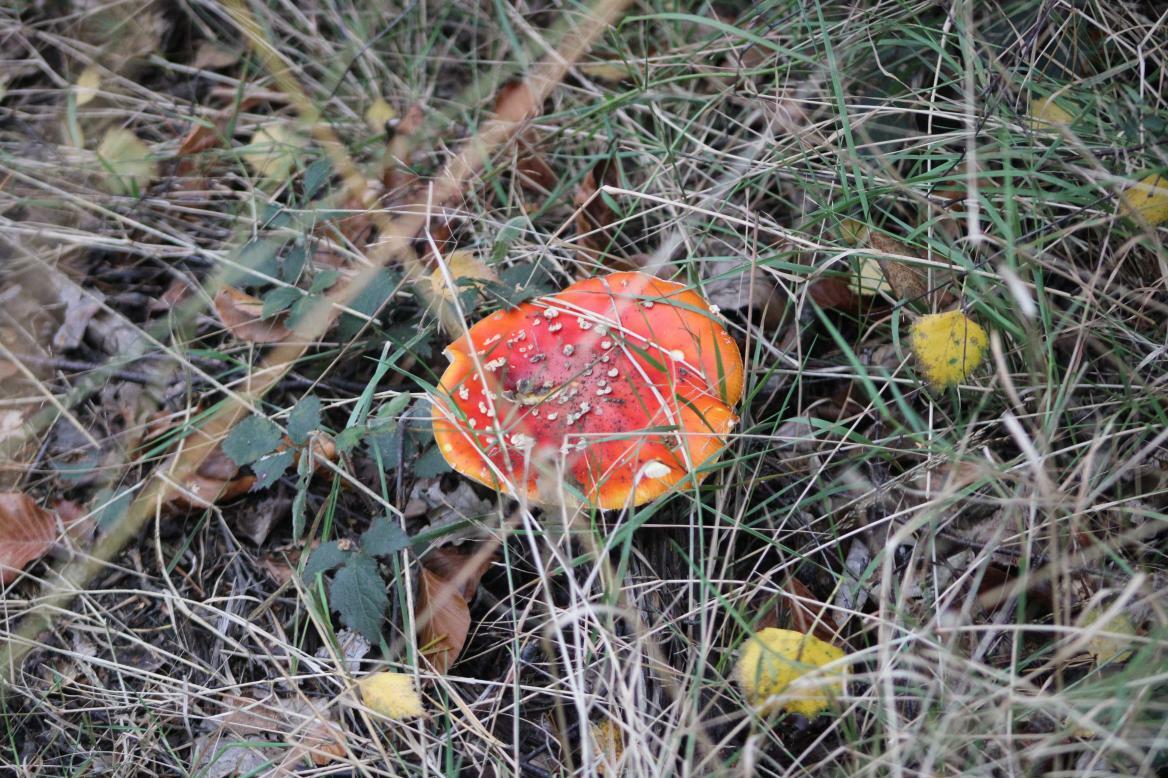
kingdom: Fungi
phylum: Basidiomycota
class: Agaricomycetes
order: Agaricales
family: Amanitaceae
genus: Amanita
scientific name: Amanita muscaria
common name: Fly agaric
